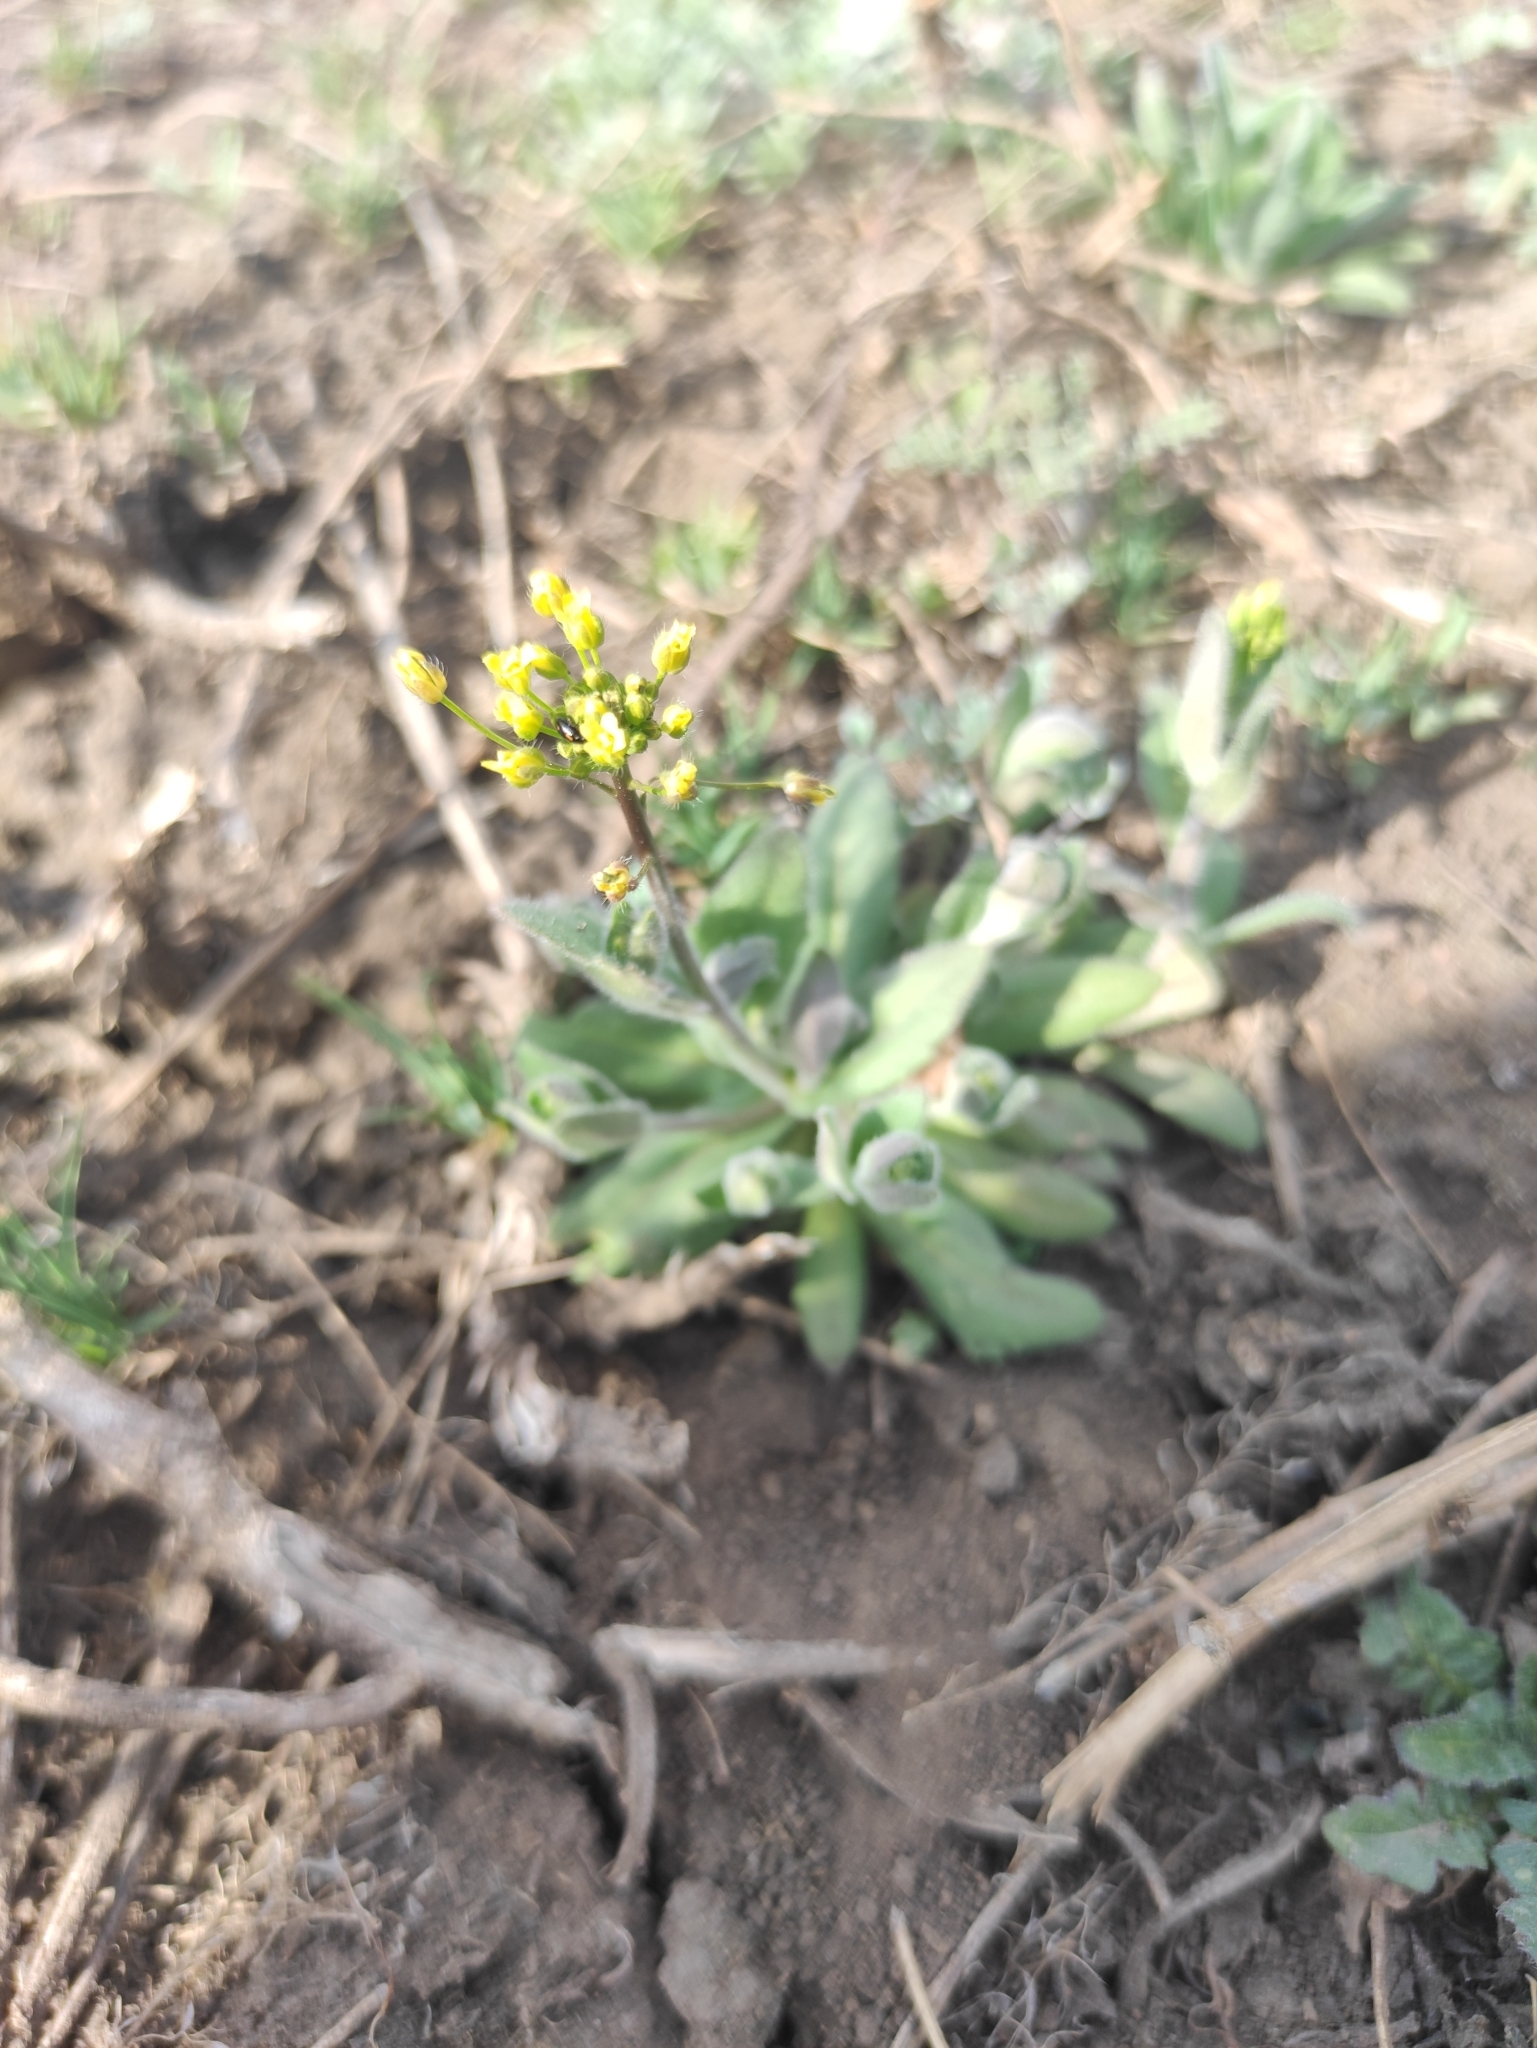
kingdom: Plantae
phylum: Tracheophyta
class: Magnoliopsida
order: Brassicales
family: Brassicaceae
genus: Draba
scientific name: Draba nemorosa
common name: Wood whitlow-grass
